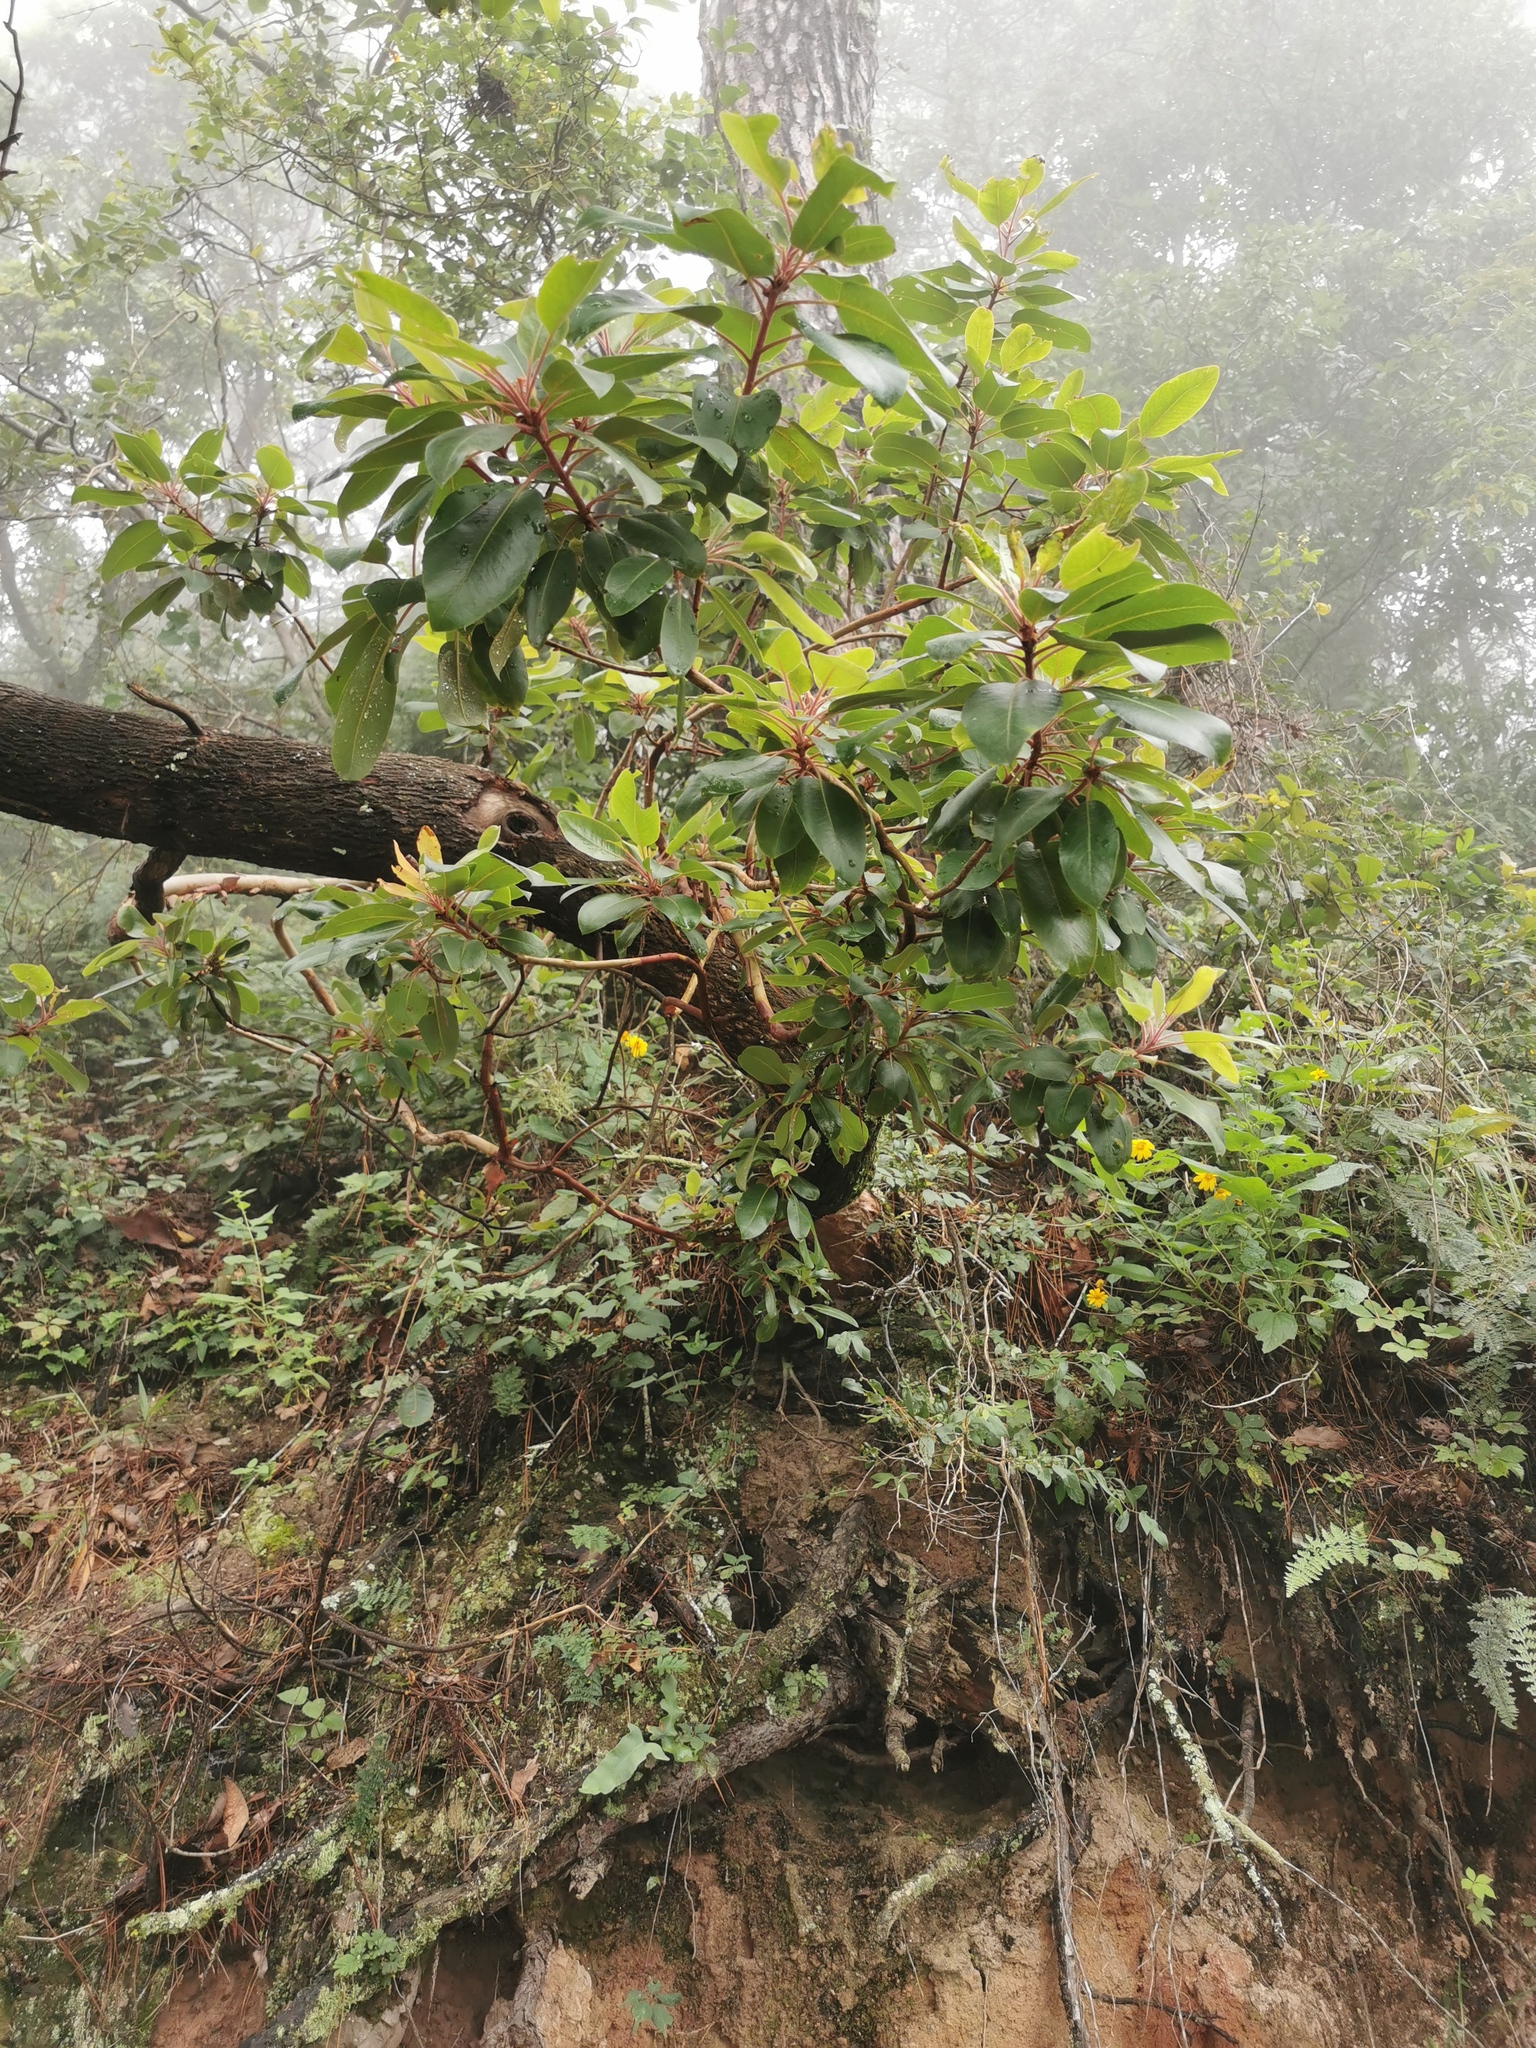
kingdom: Plantae
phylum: Tracheophyta
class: Magnoliopsida
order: Ericales
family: Ericaceae
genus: Arbutus
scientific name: Arbutus xalapensis
